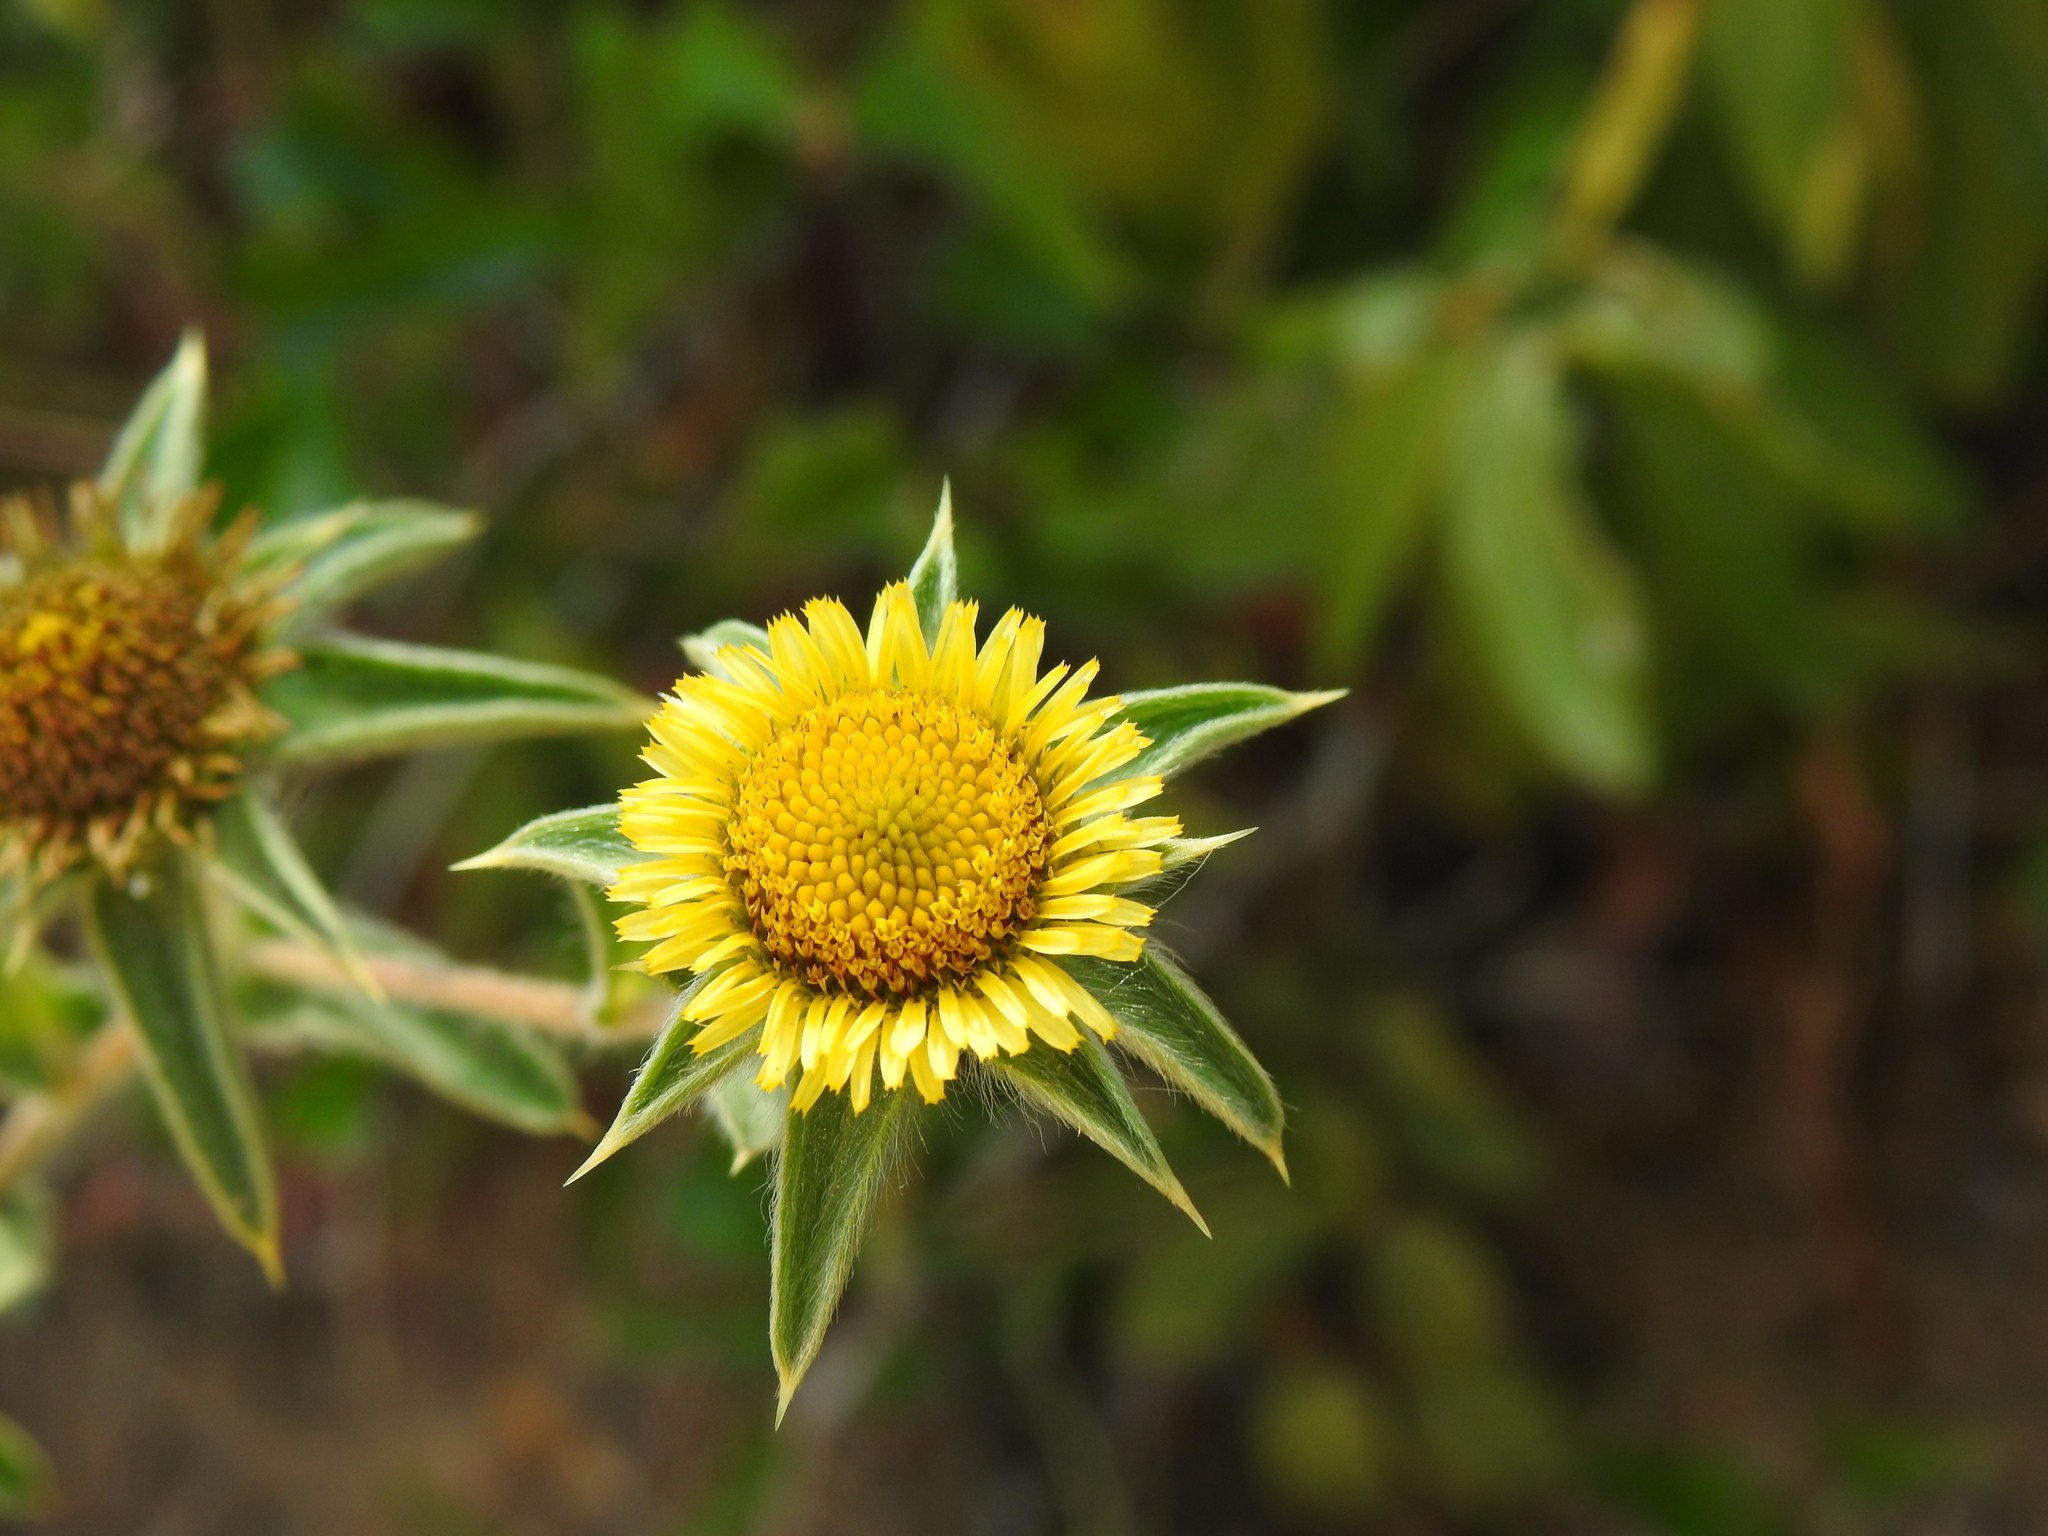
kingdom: Plantae
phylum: Tracheophyta
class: Magnoliopsida
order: Asterales
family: Asteraceae
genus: Pallenis
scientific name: Pallenis spinosa
